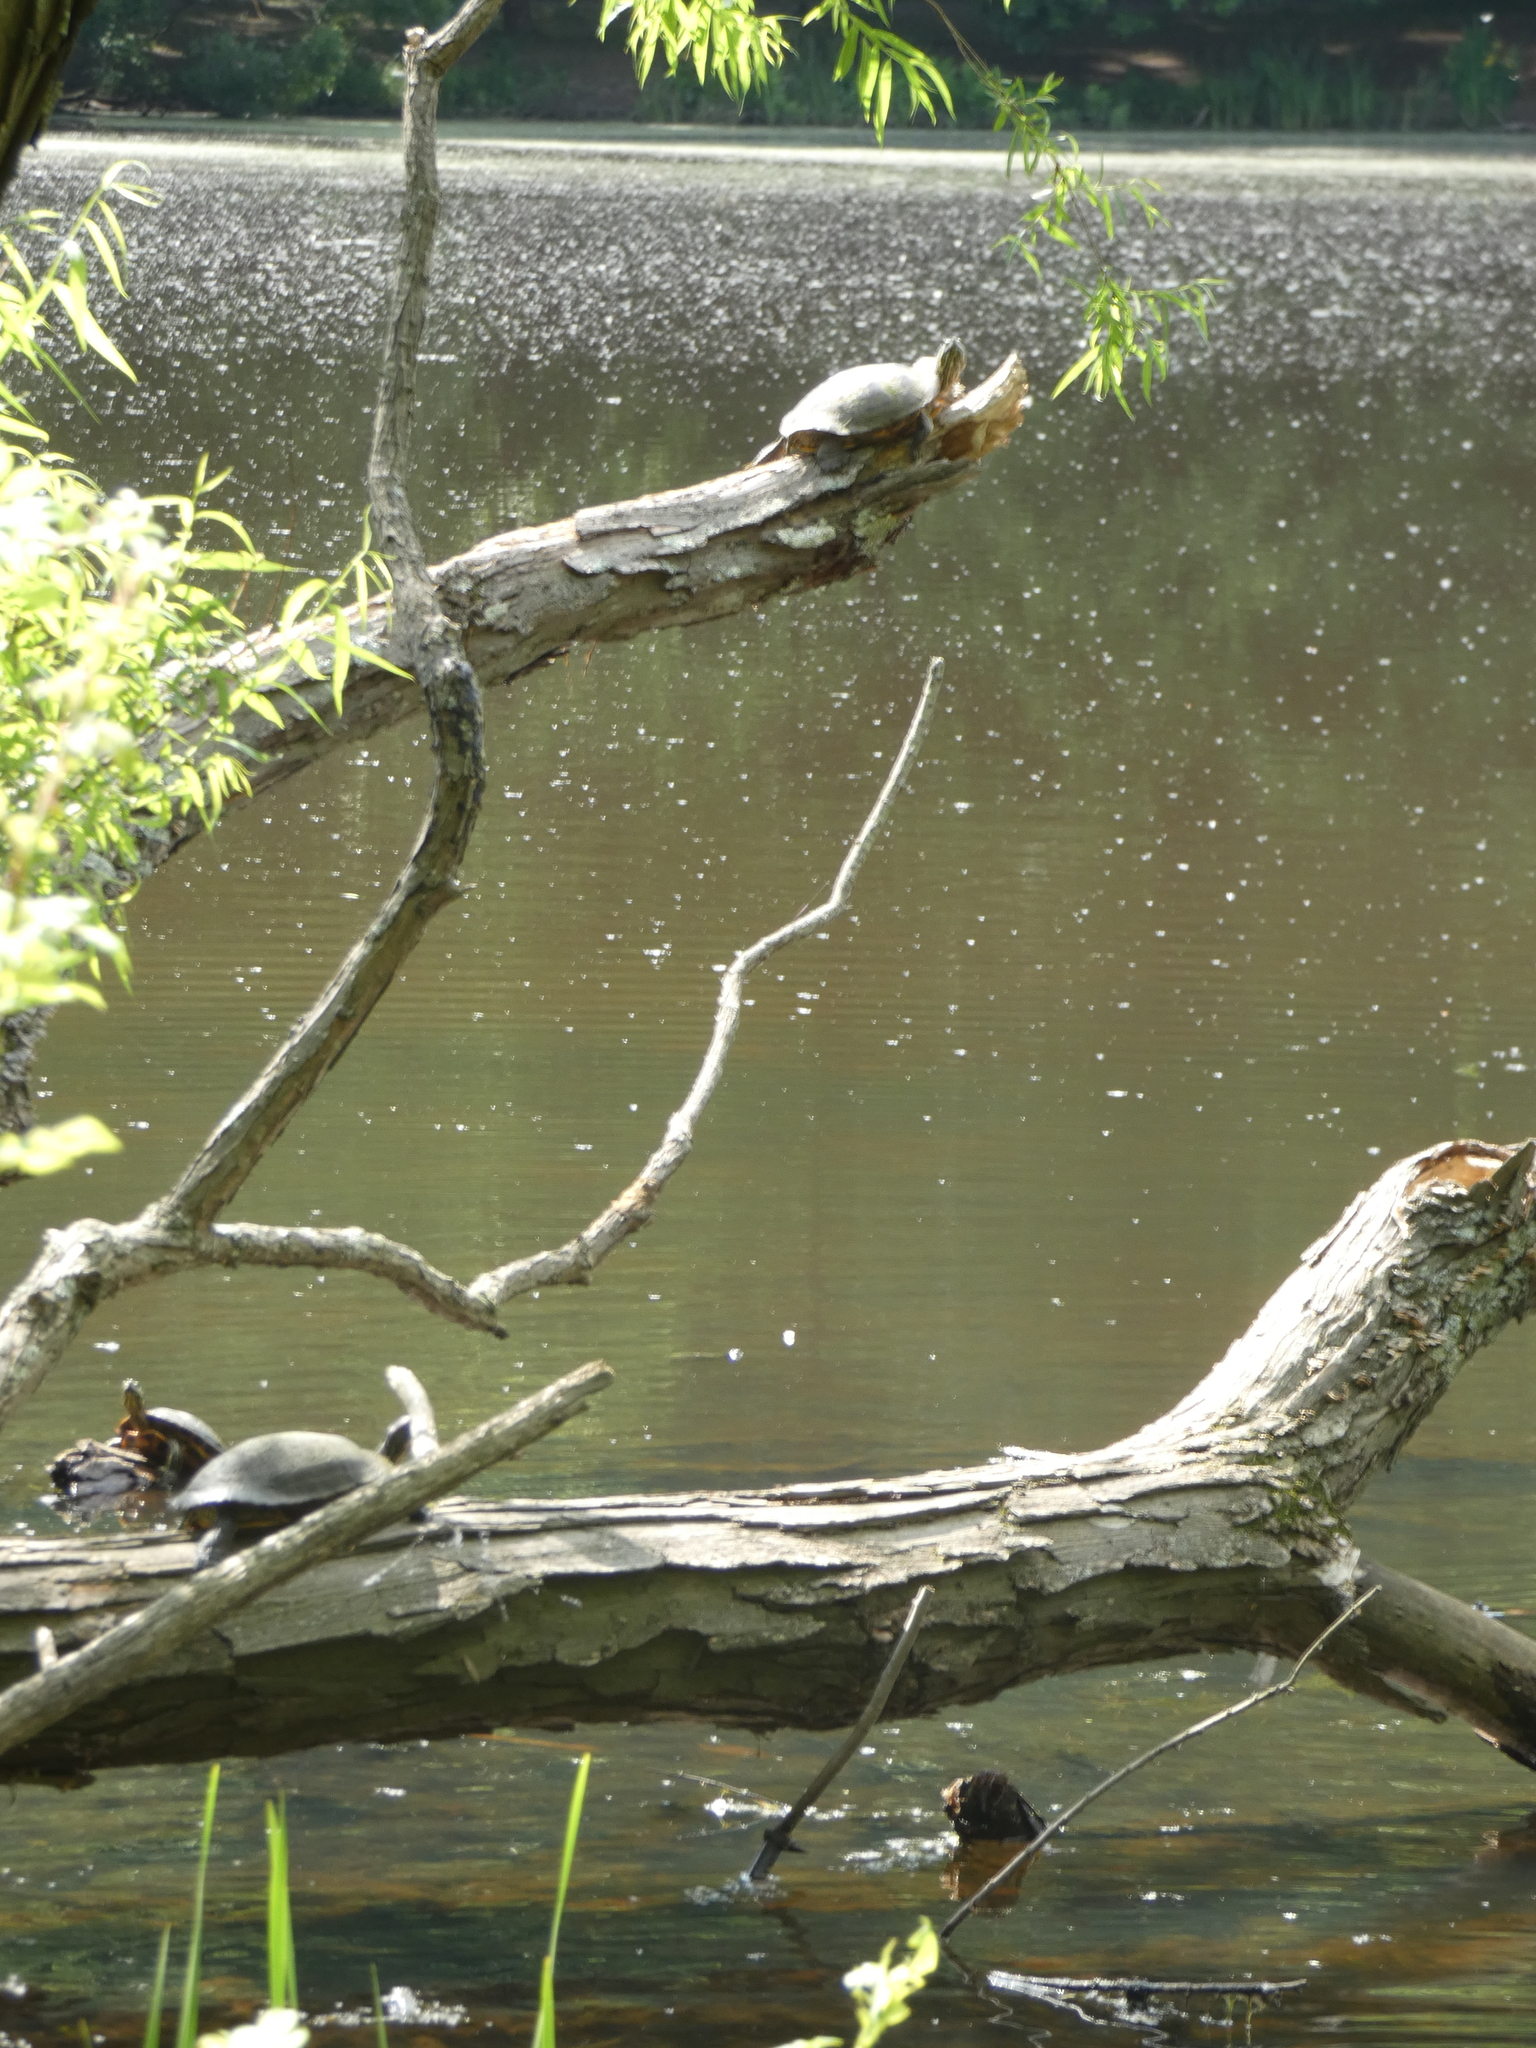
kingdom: Animalia
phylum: Chordata
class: Testudines
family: Emydidae
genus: Trachemys
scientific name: Trachemys scripta
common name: Slider
